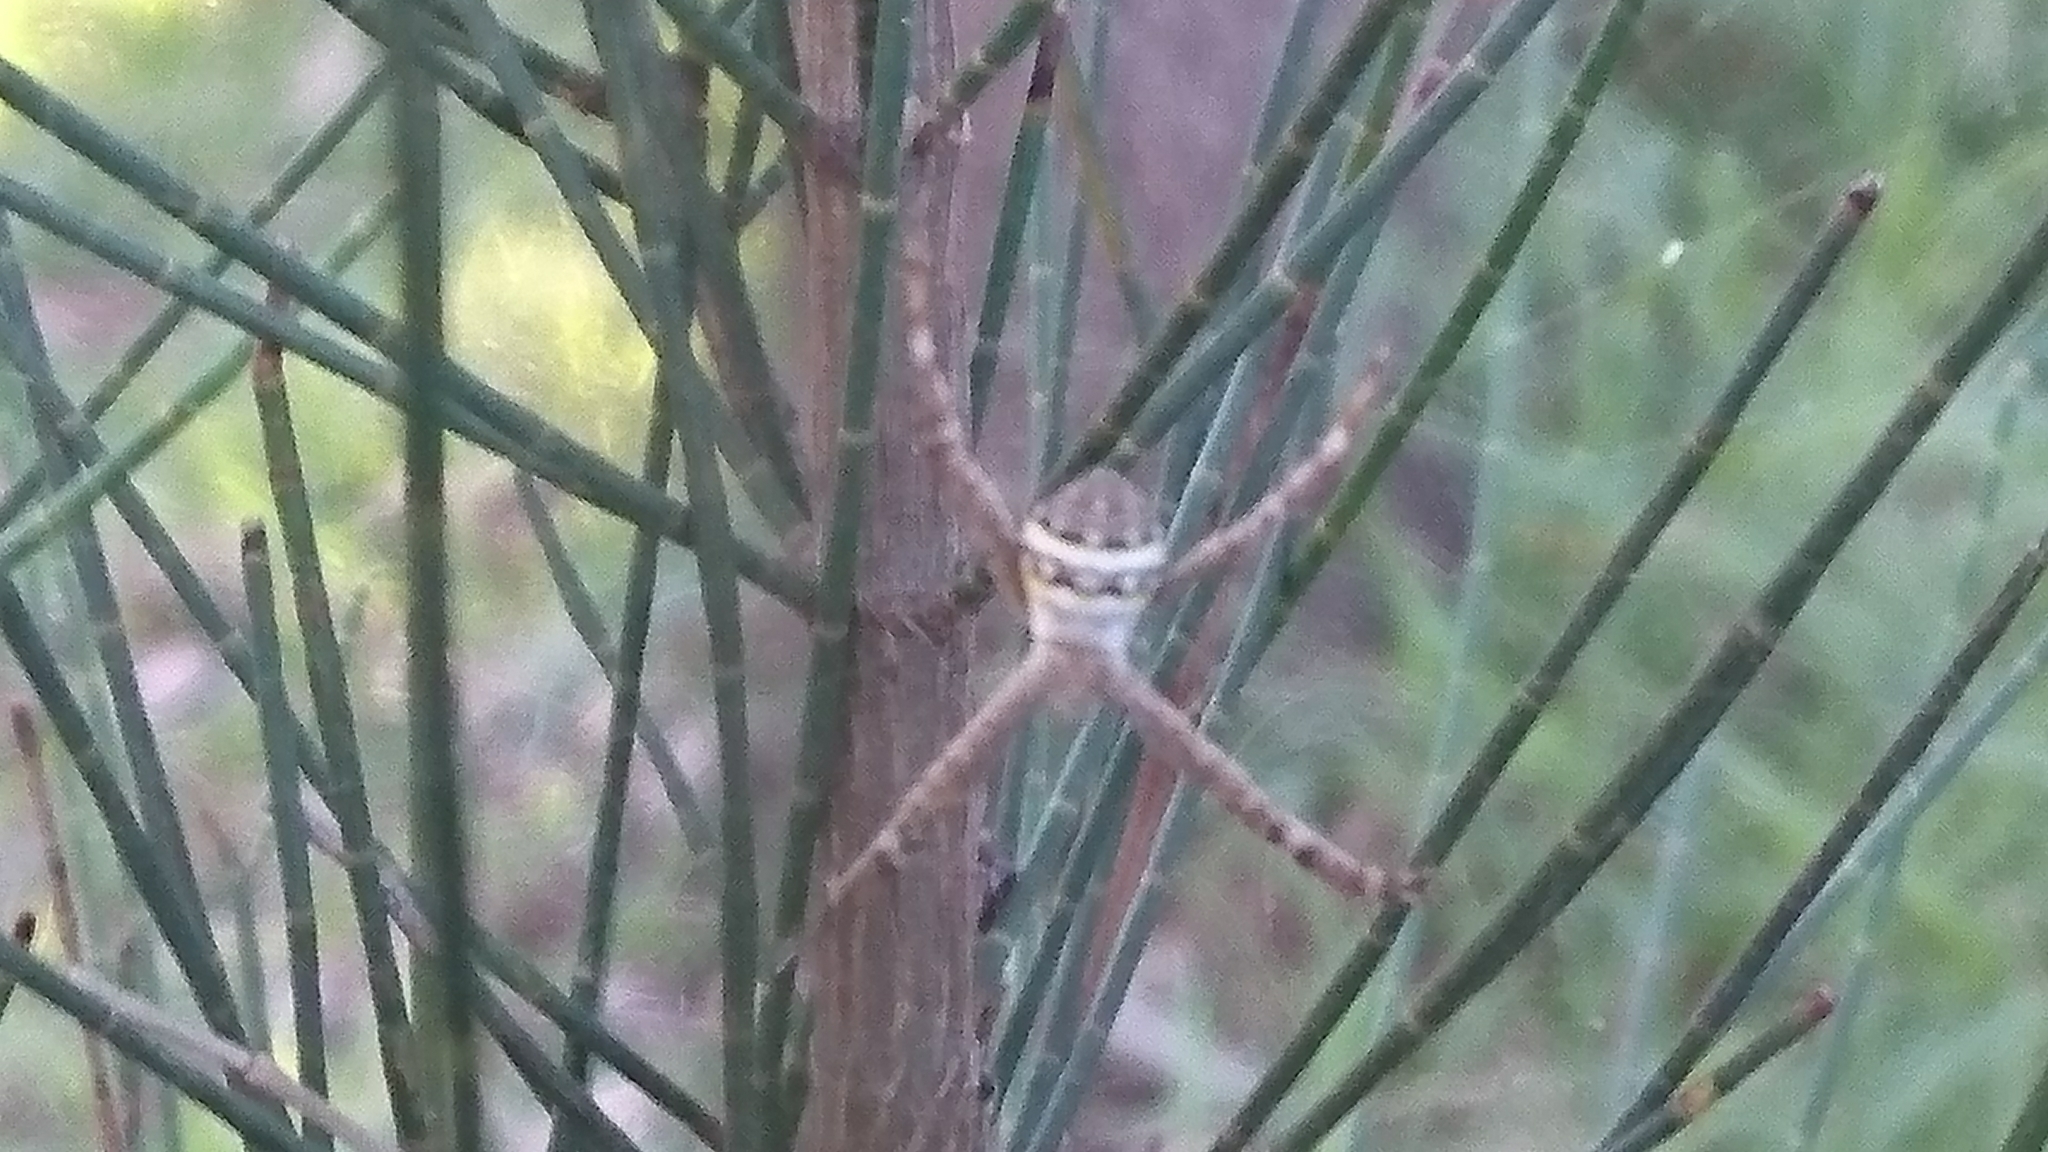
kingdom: Animalia
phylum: Arthropoda
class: Arachnida
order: Araneae
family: Araneidae
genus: Argiope
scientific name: Argiope keyserlingi
